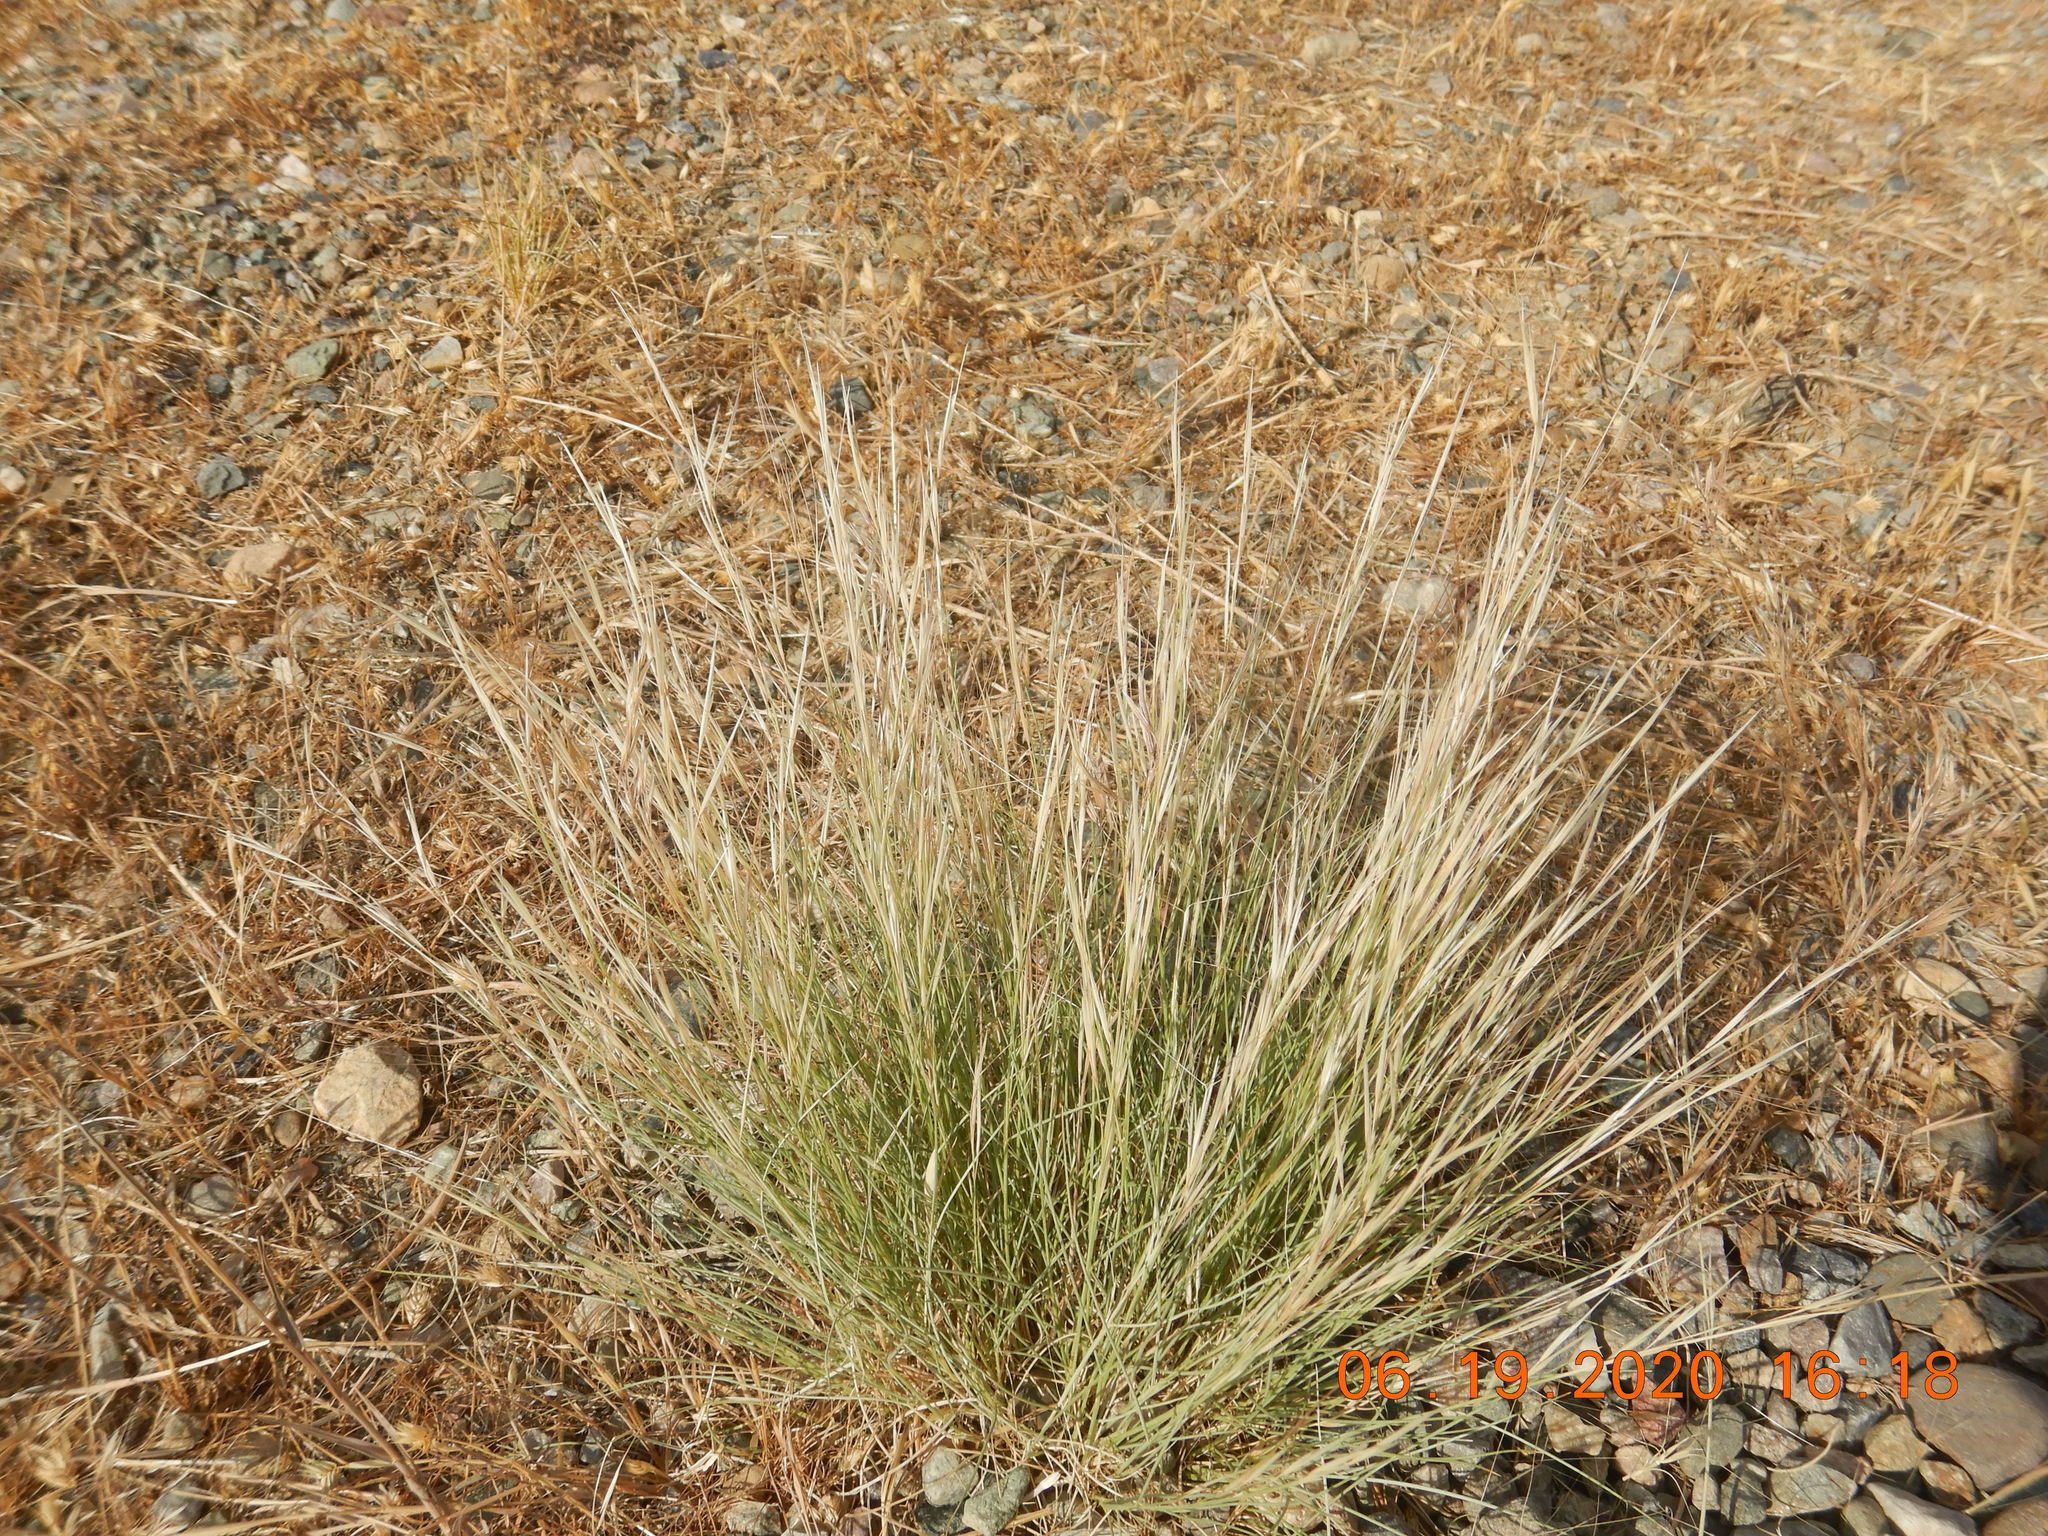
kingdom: Plantae
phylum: Tracheophyta
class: Liliopsida
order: Poales
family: Poaceae
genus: Aristida
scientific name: Aristida purpurea
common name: Purple threeawn
